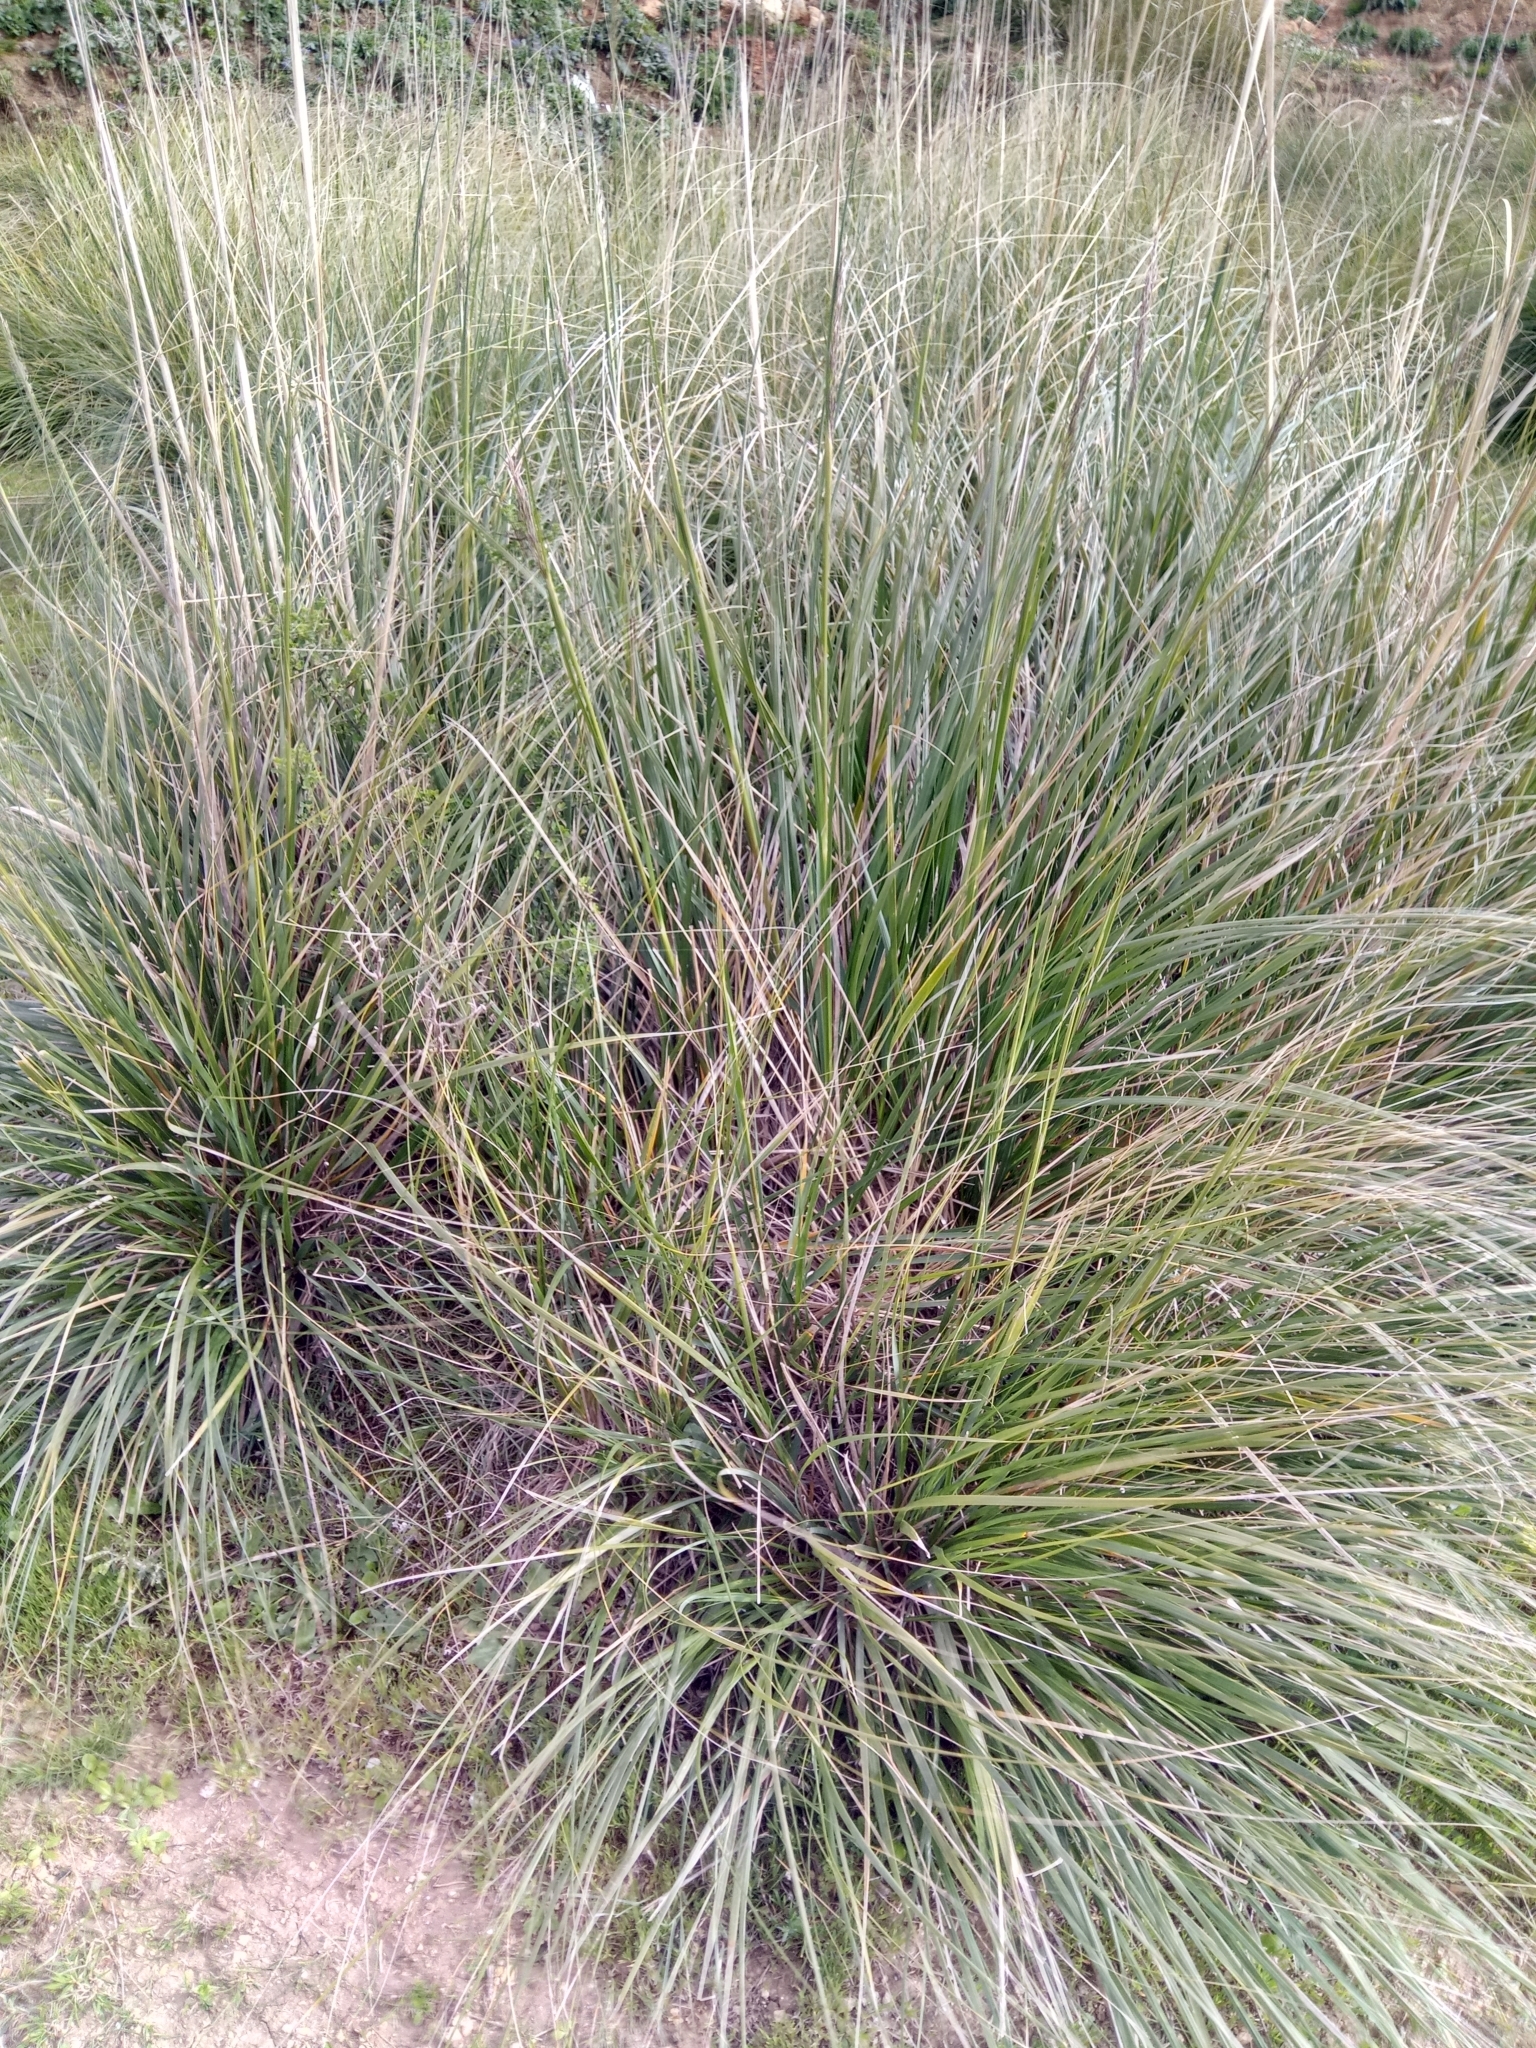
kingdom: Plantae
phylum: Tracheophyta
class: Liliopsida
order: Poales
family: Poaceae
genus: Ampelodesmos
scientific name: Ampelodesmos mauritanicus
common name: Mauritanian grass
